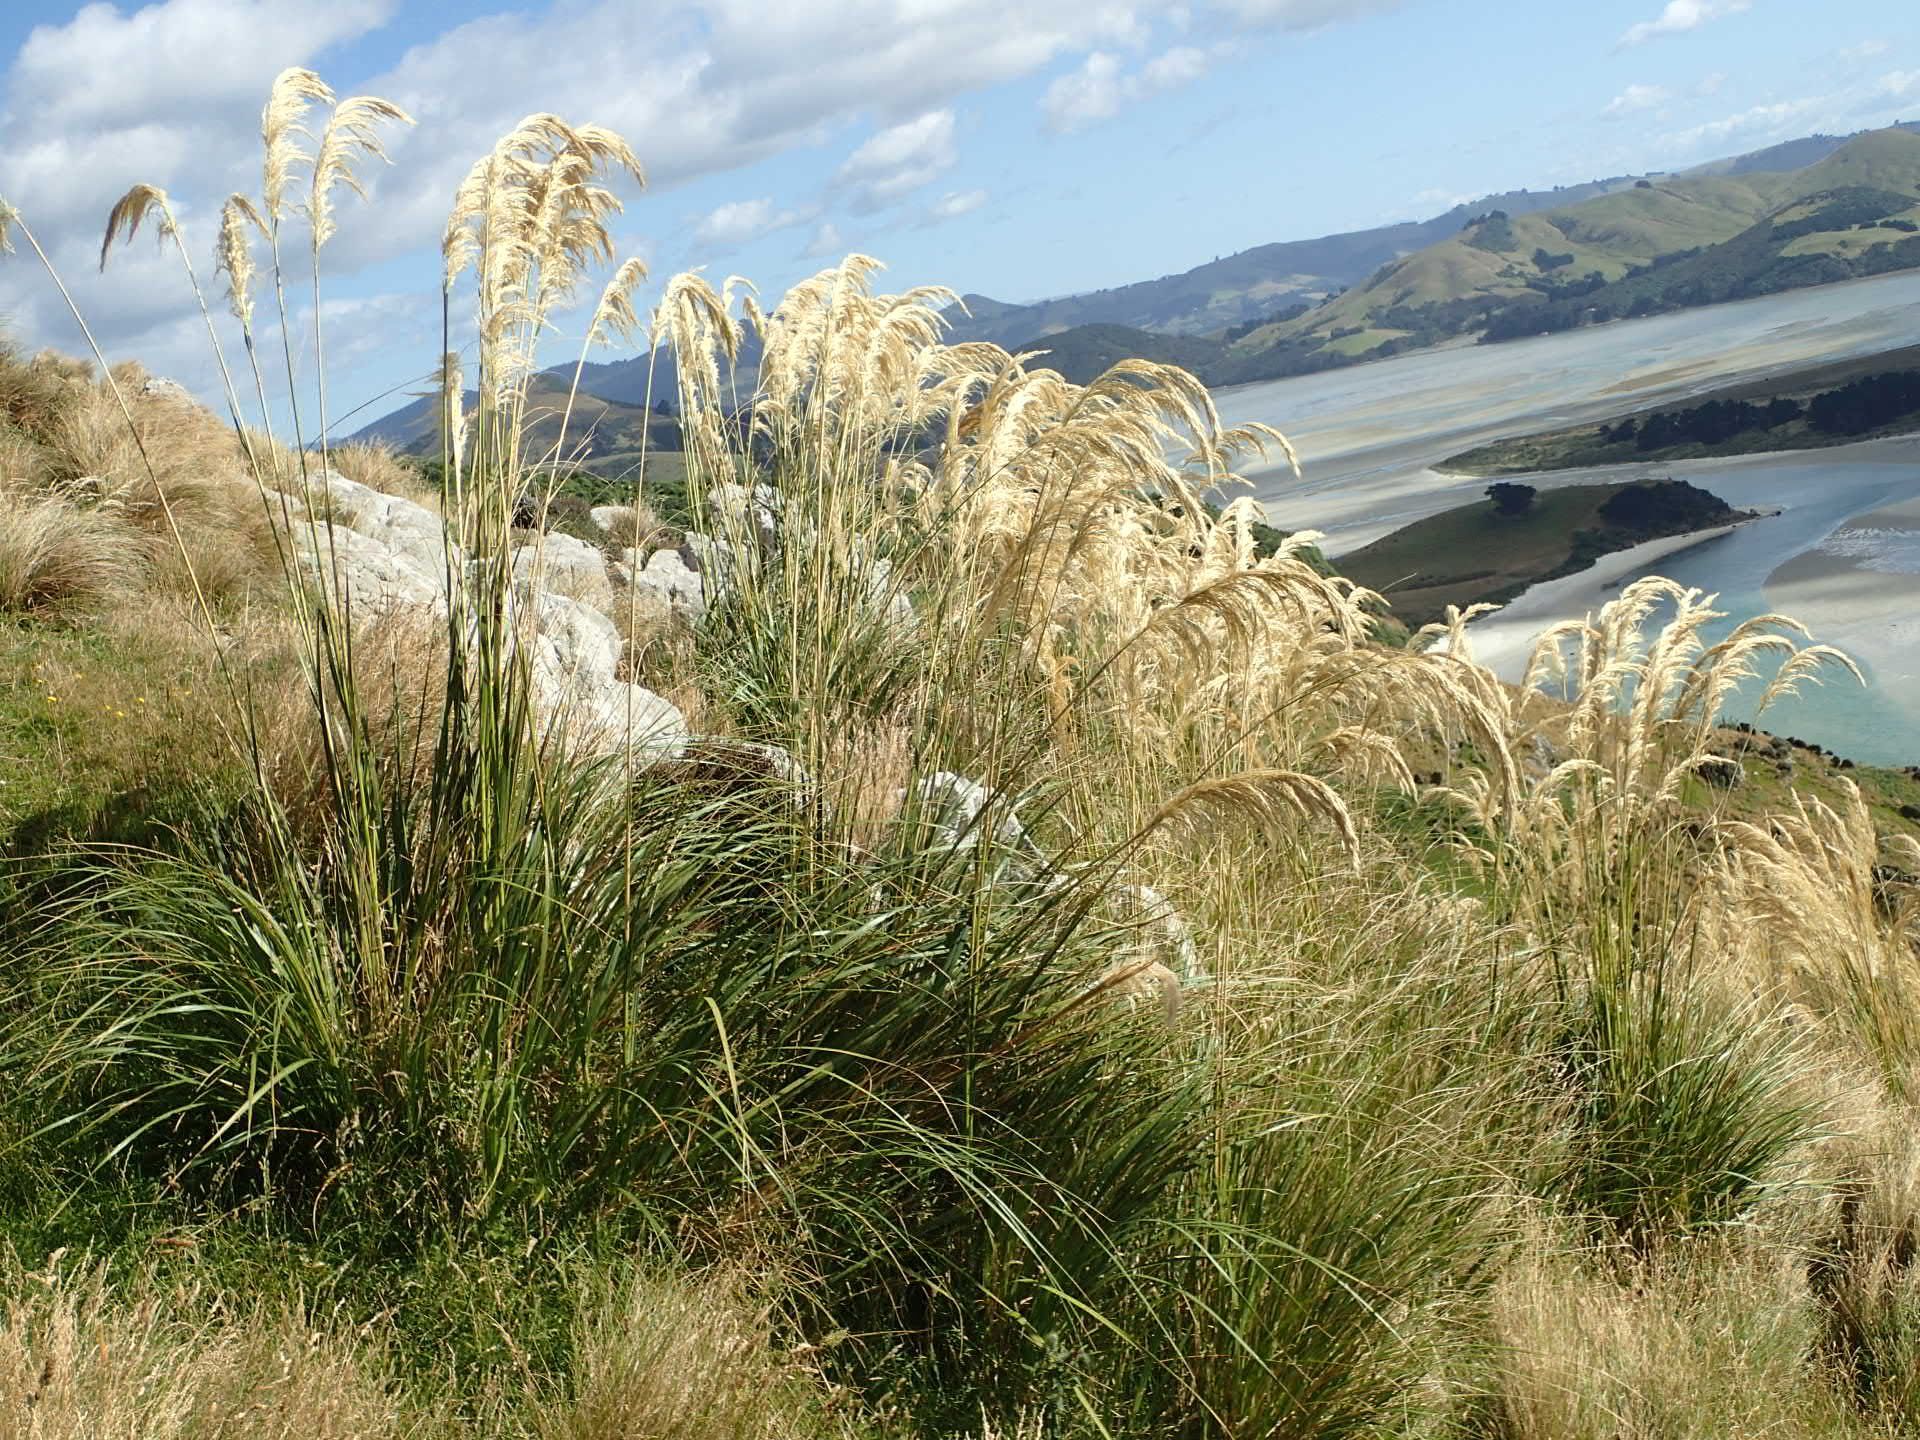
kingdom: Plantae
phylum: Tracheophyta
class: Liliopsida
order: Poales
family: Poaceae
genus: Austroderia
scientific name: Austroderia richardii
